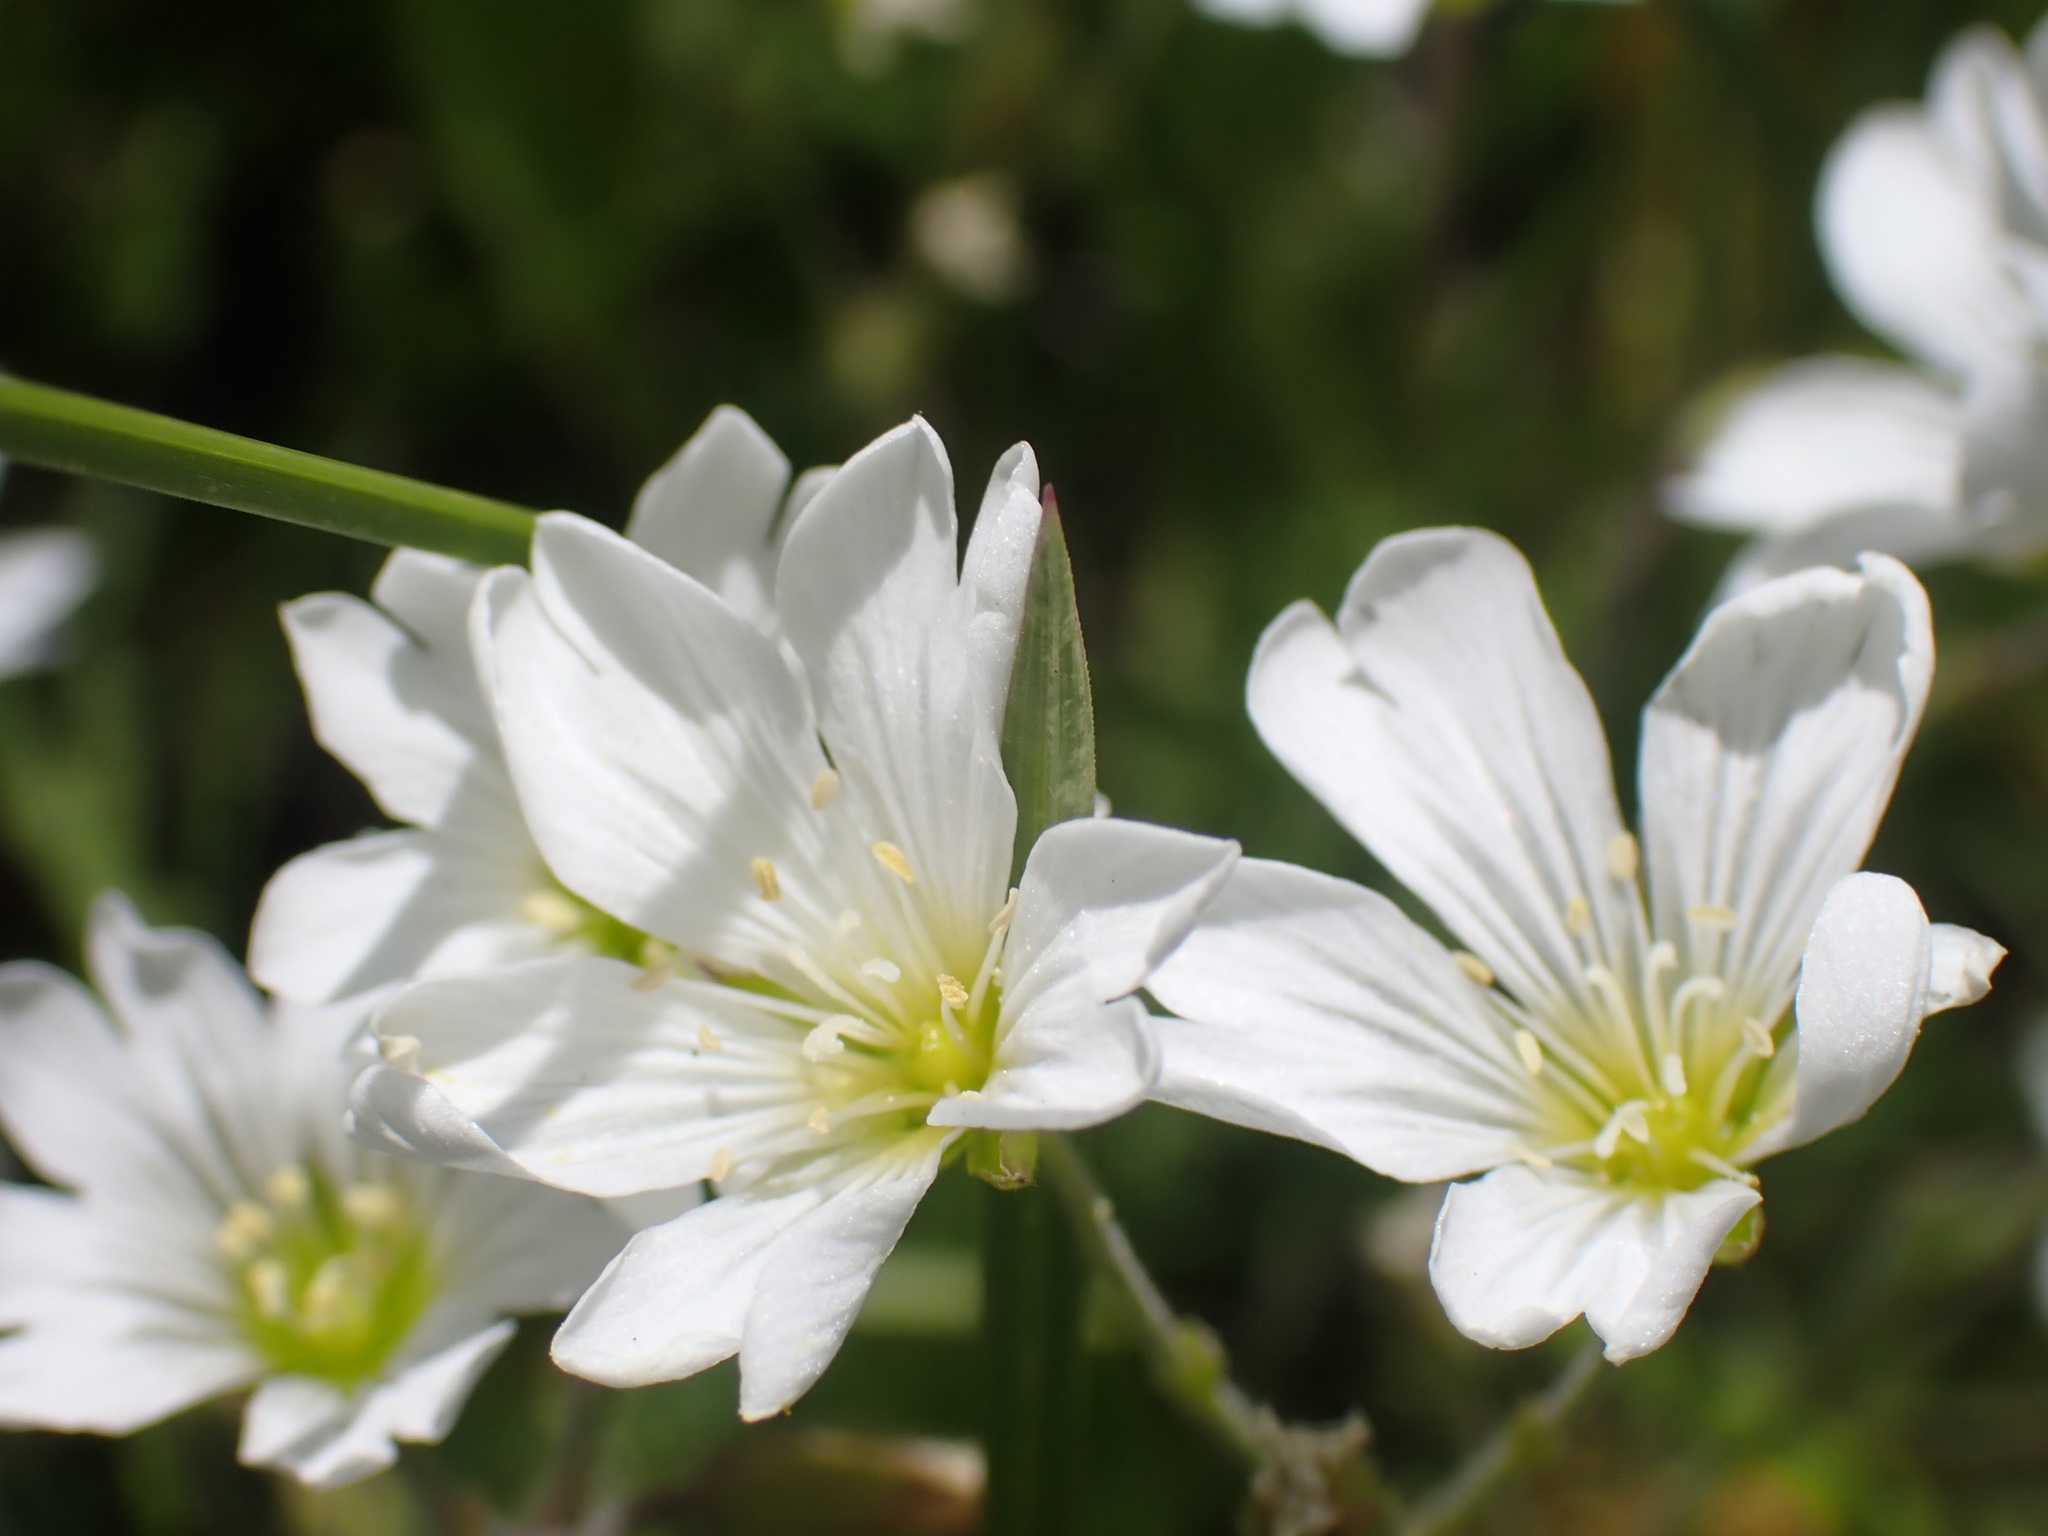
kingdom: Plantae
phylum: Tracheophyta
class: Magnoliopsida
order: Caryophyllales
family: Caryophyllaceae
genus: Cerastium
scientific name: Cerastium arvense
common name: Field mouse-ear
